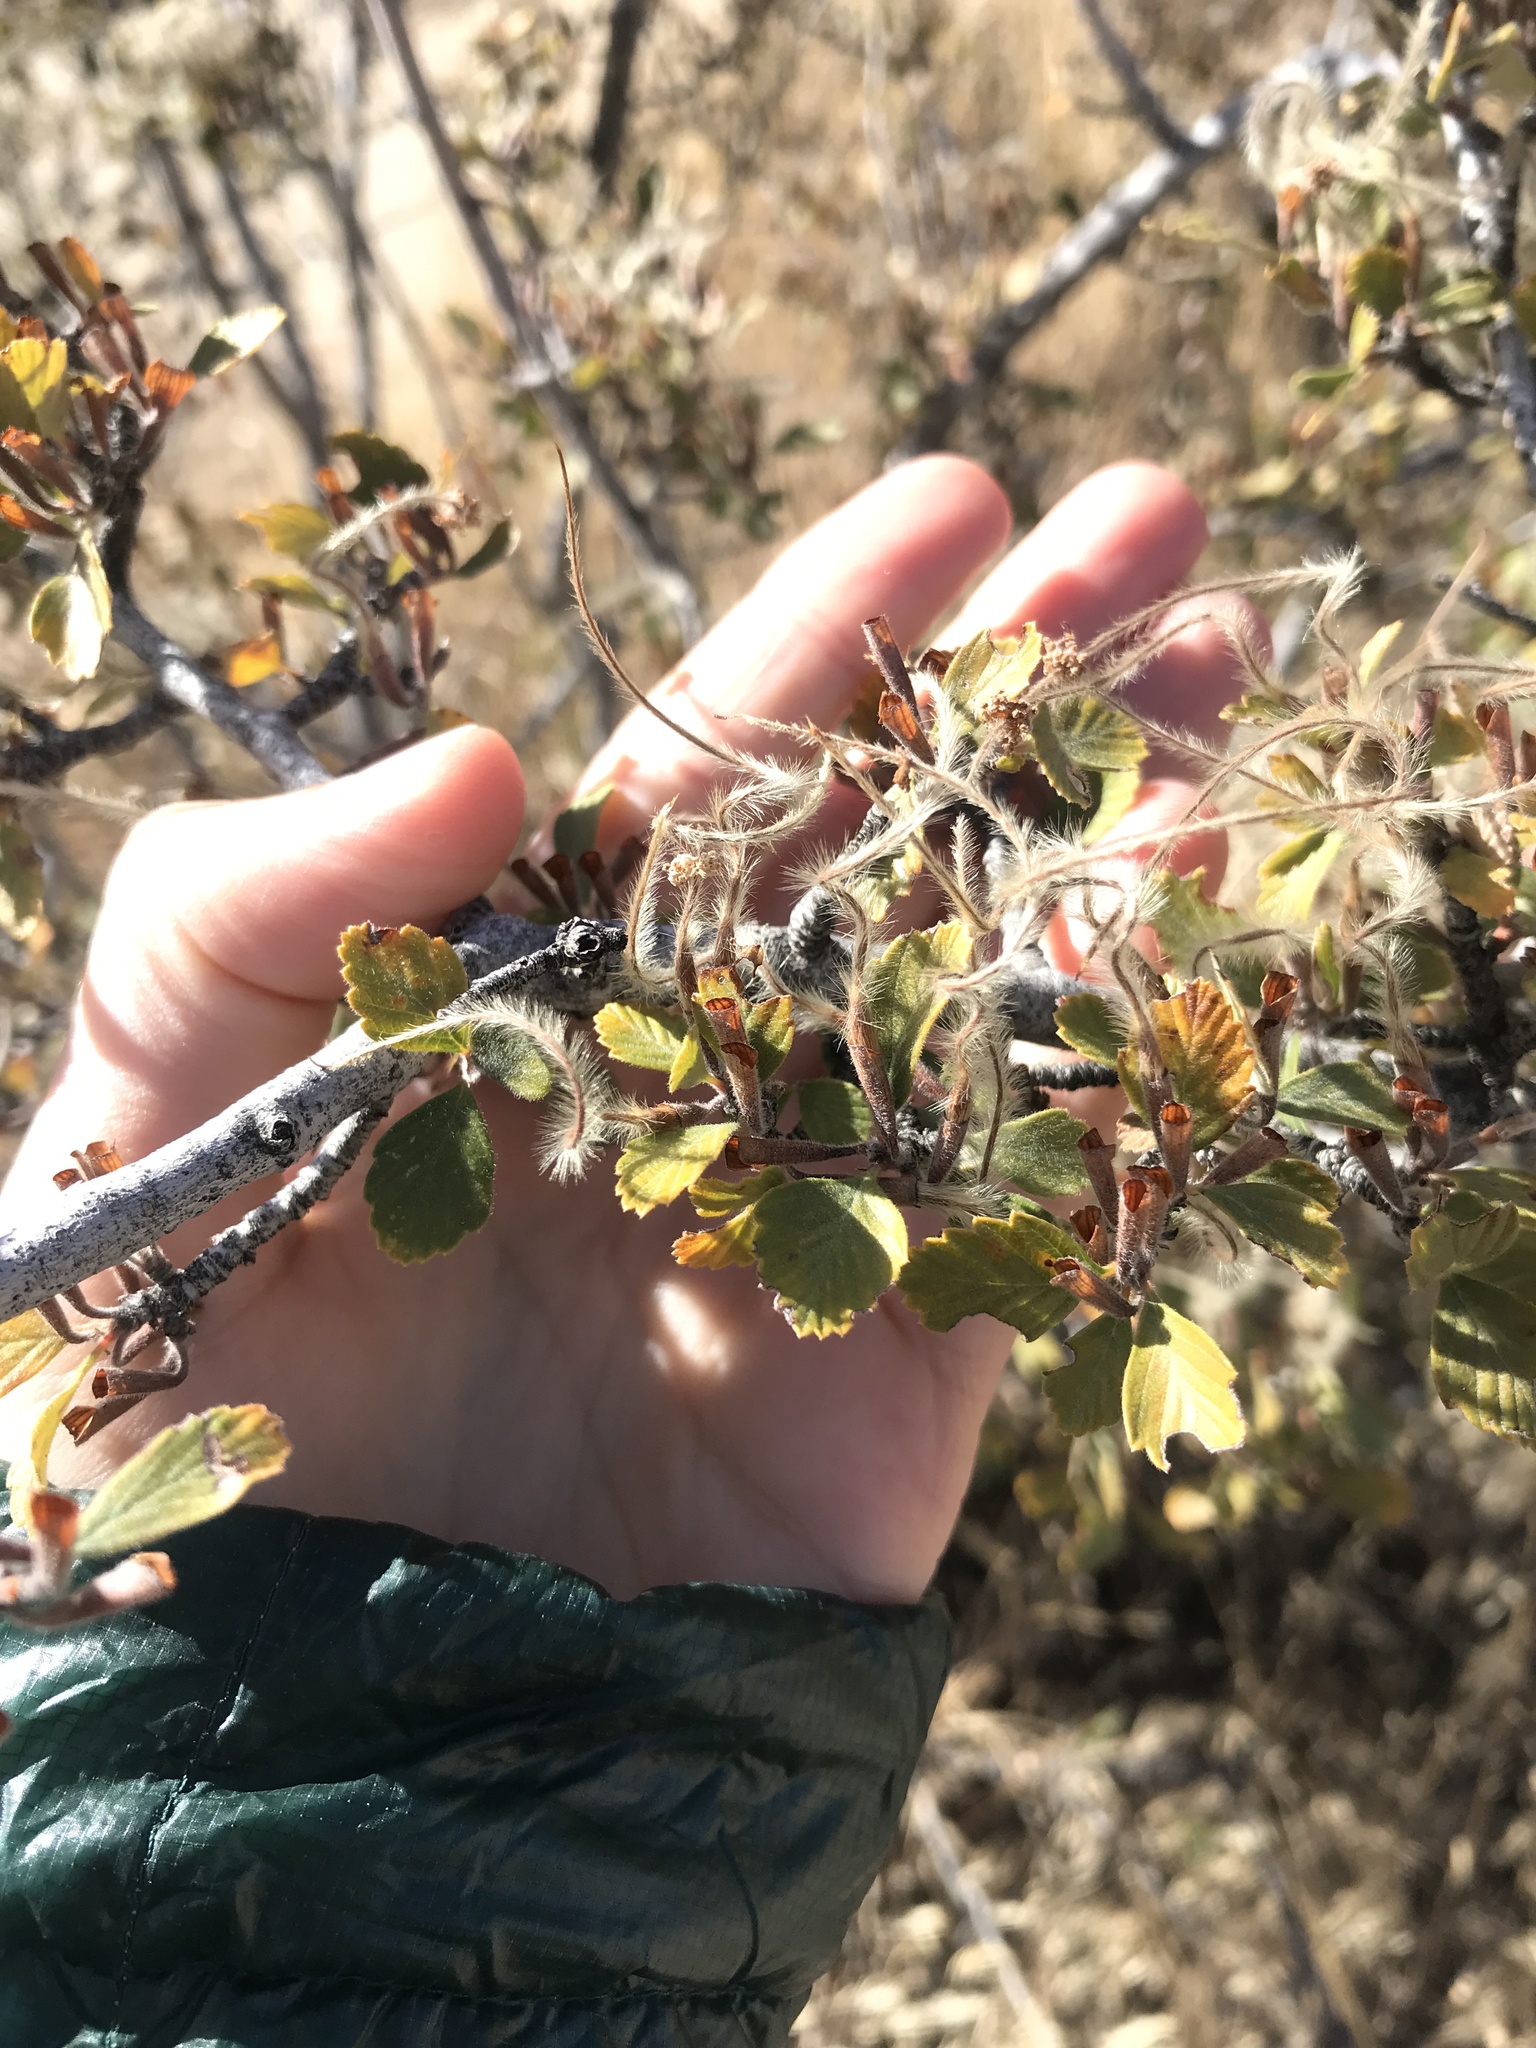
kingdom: Plantae
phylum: Tracheophyta
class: Magnoliopsida
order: Rosales
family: Rosaceae
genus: Cercocarpus
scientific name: Cercocarpus montanus
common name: Alder-leaf cercocarpus
